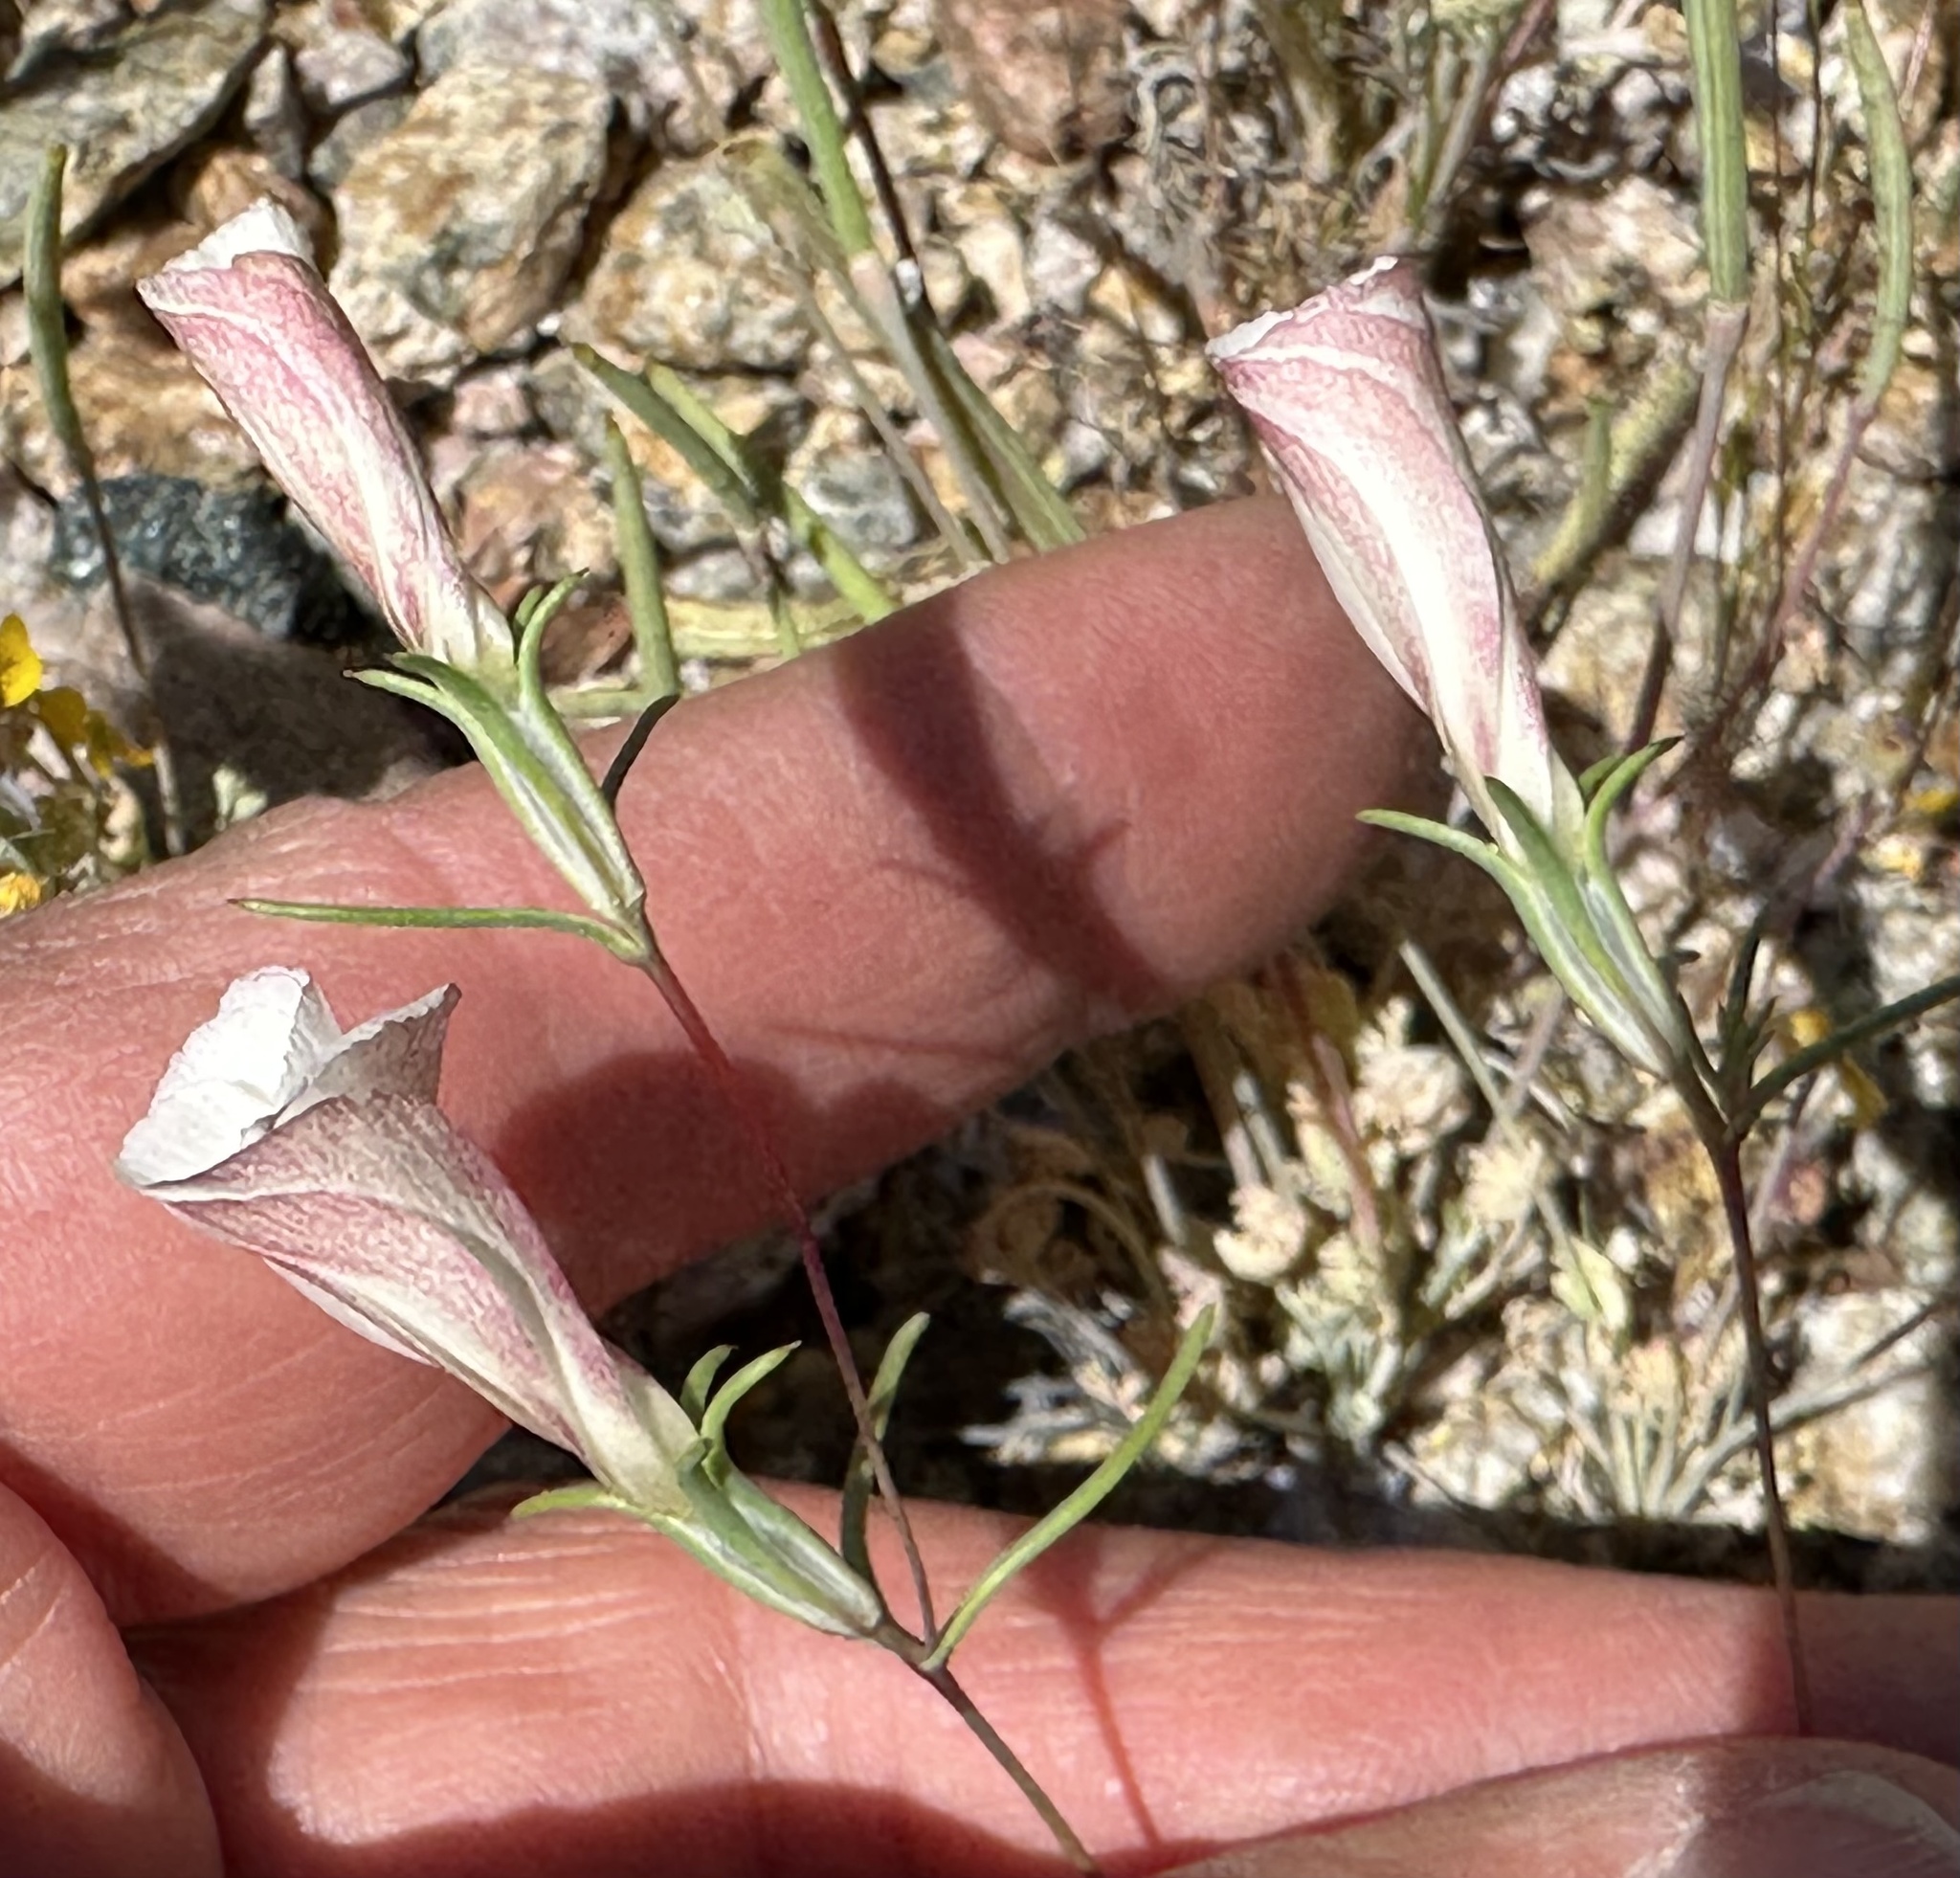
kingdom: Plantae
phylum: Tracheophyta
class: Magnoliopsida
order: Ericales
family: Polemoniaceae
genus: Linanthus
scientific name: Linanthus dichotomus
